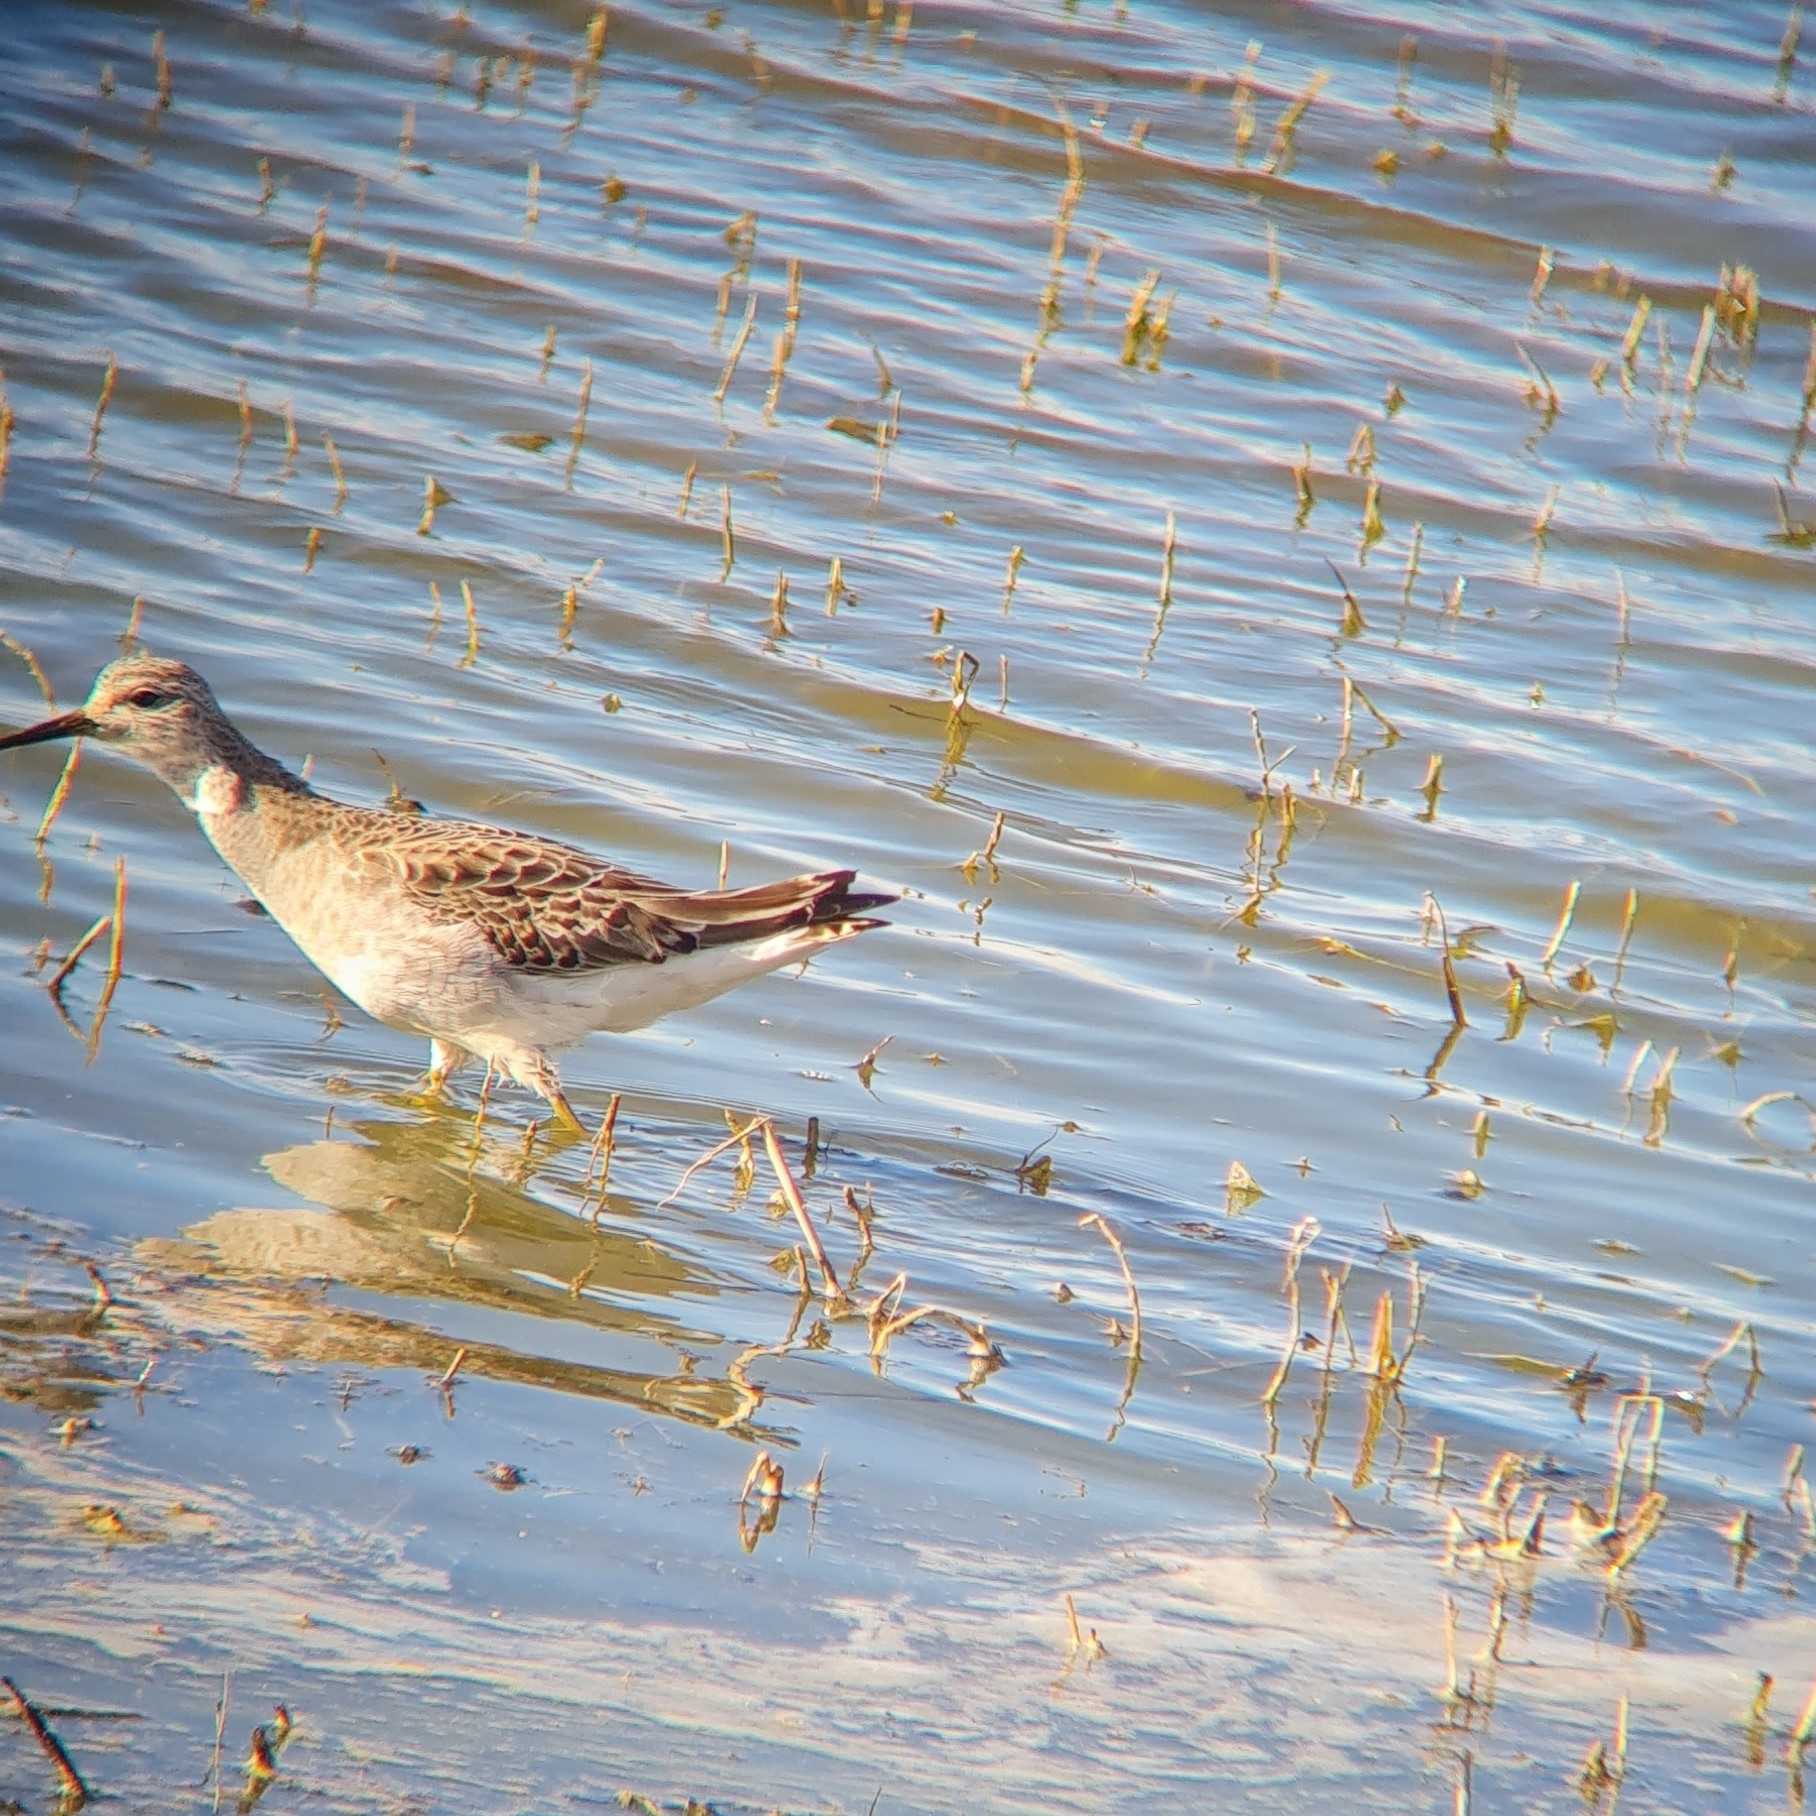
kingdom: Animalia
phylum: Chordata
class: Aves
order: Charadriiformes
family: Scolopacidae
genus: Calidris
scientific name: Calidris pugnax
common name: Ruff
